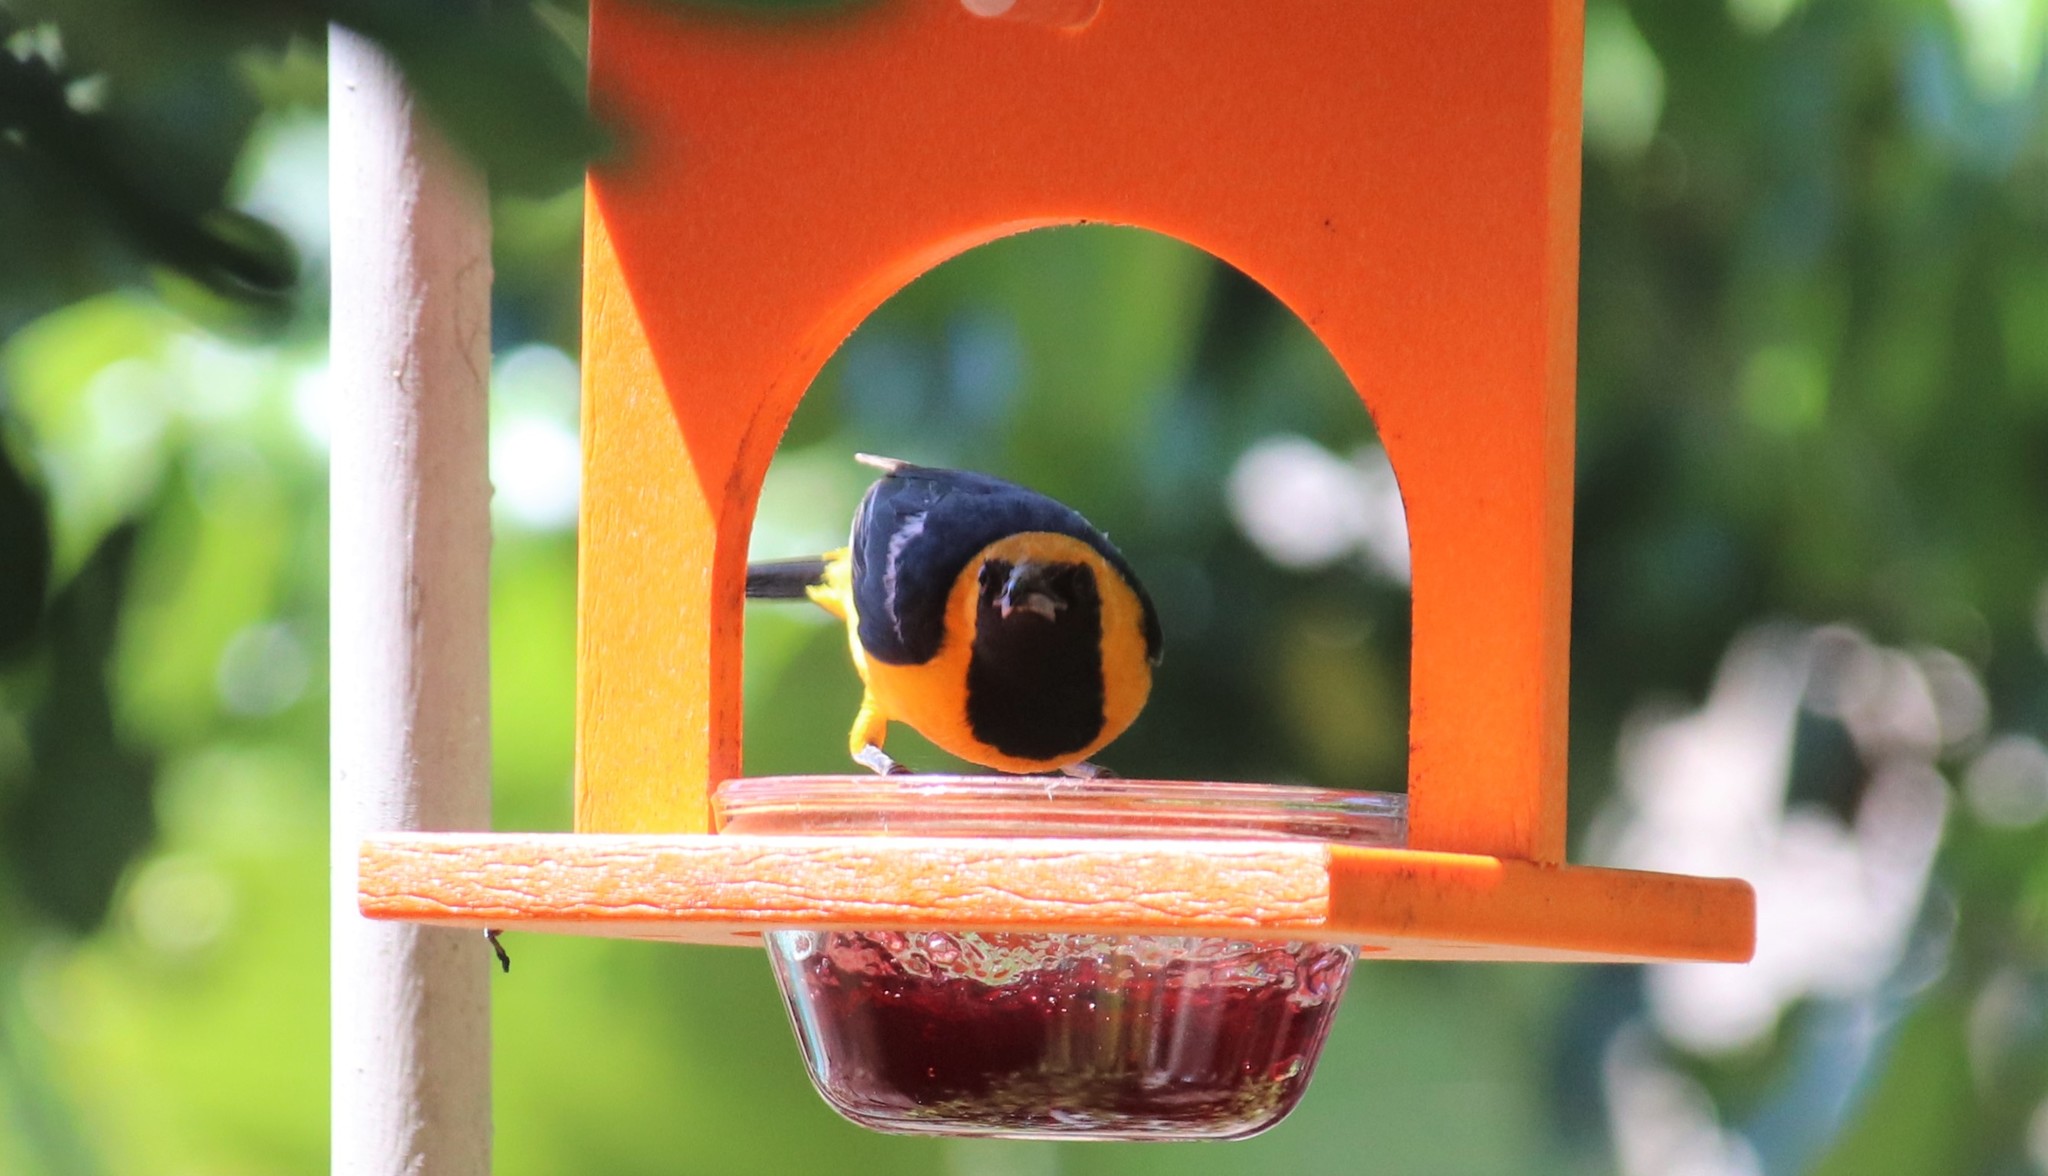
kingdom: Animalia
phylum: Chordata
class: Aves
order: Passeriformes
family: Icteridae
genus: Icterus
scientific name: Icterus cucullatus
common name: Hooded oriole
